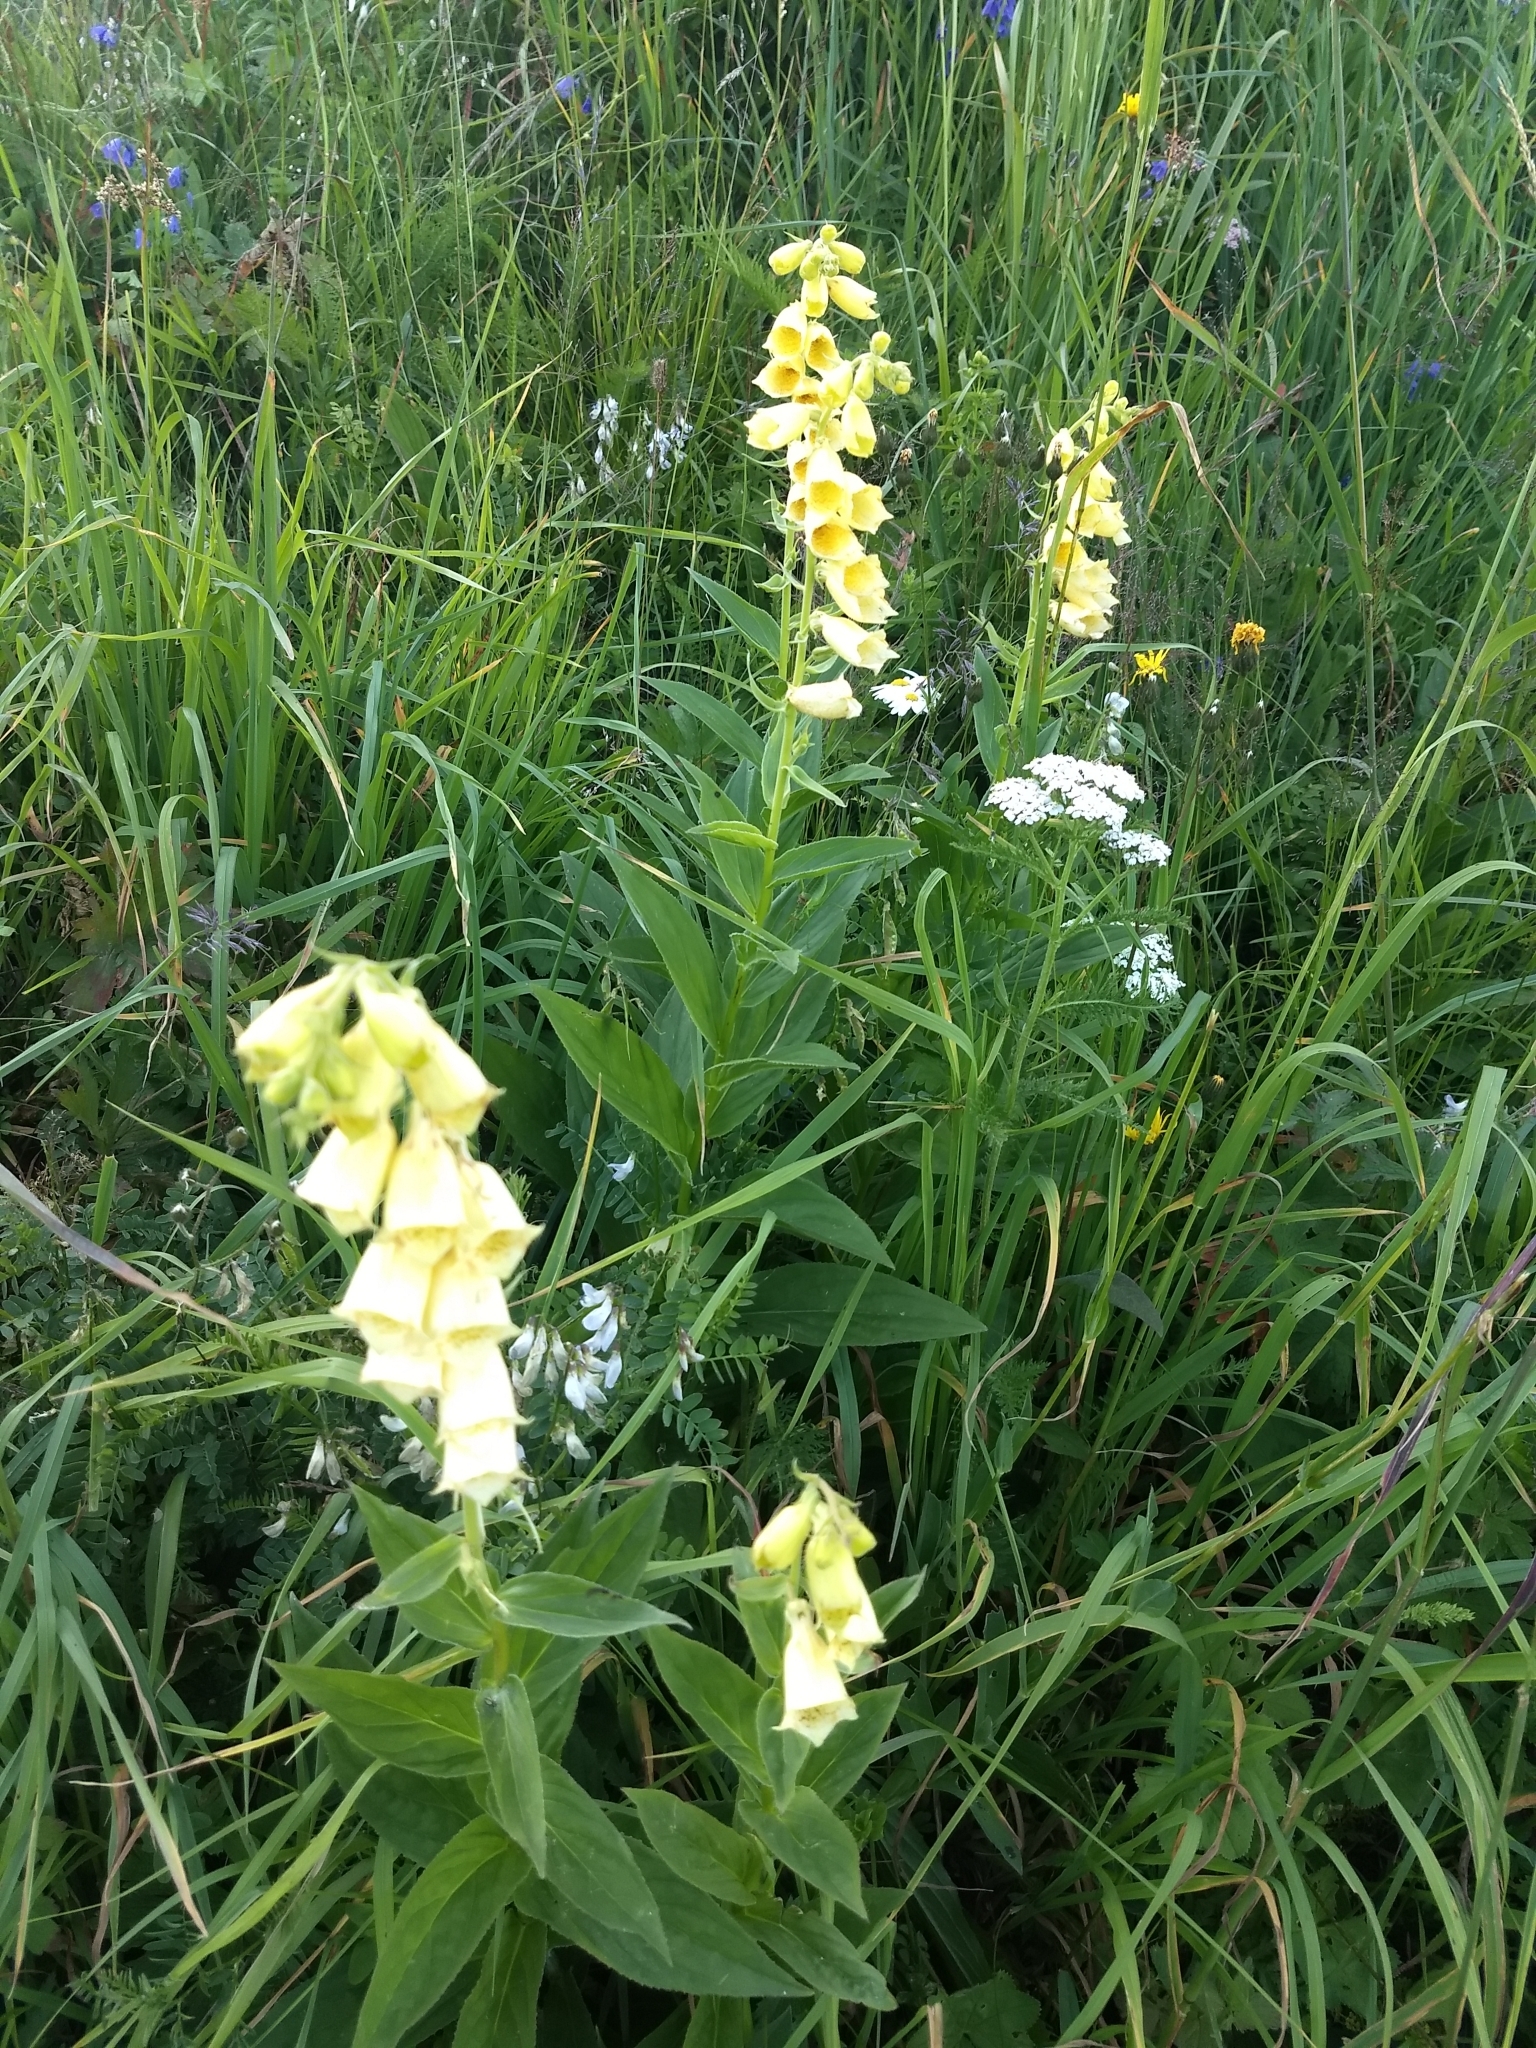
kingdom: Plantae
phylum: Tracheophyta
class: Magnoliopsida
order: Lamiales
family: Plantaginaceae
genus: Digitalis
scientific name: Digitalis grandiflora
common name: Yellow foxglove
